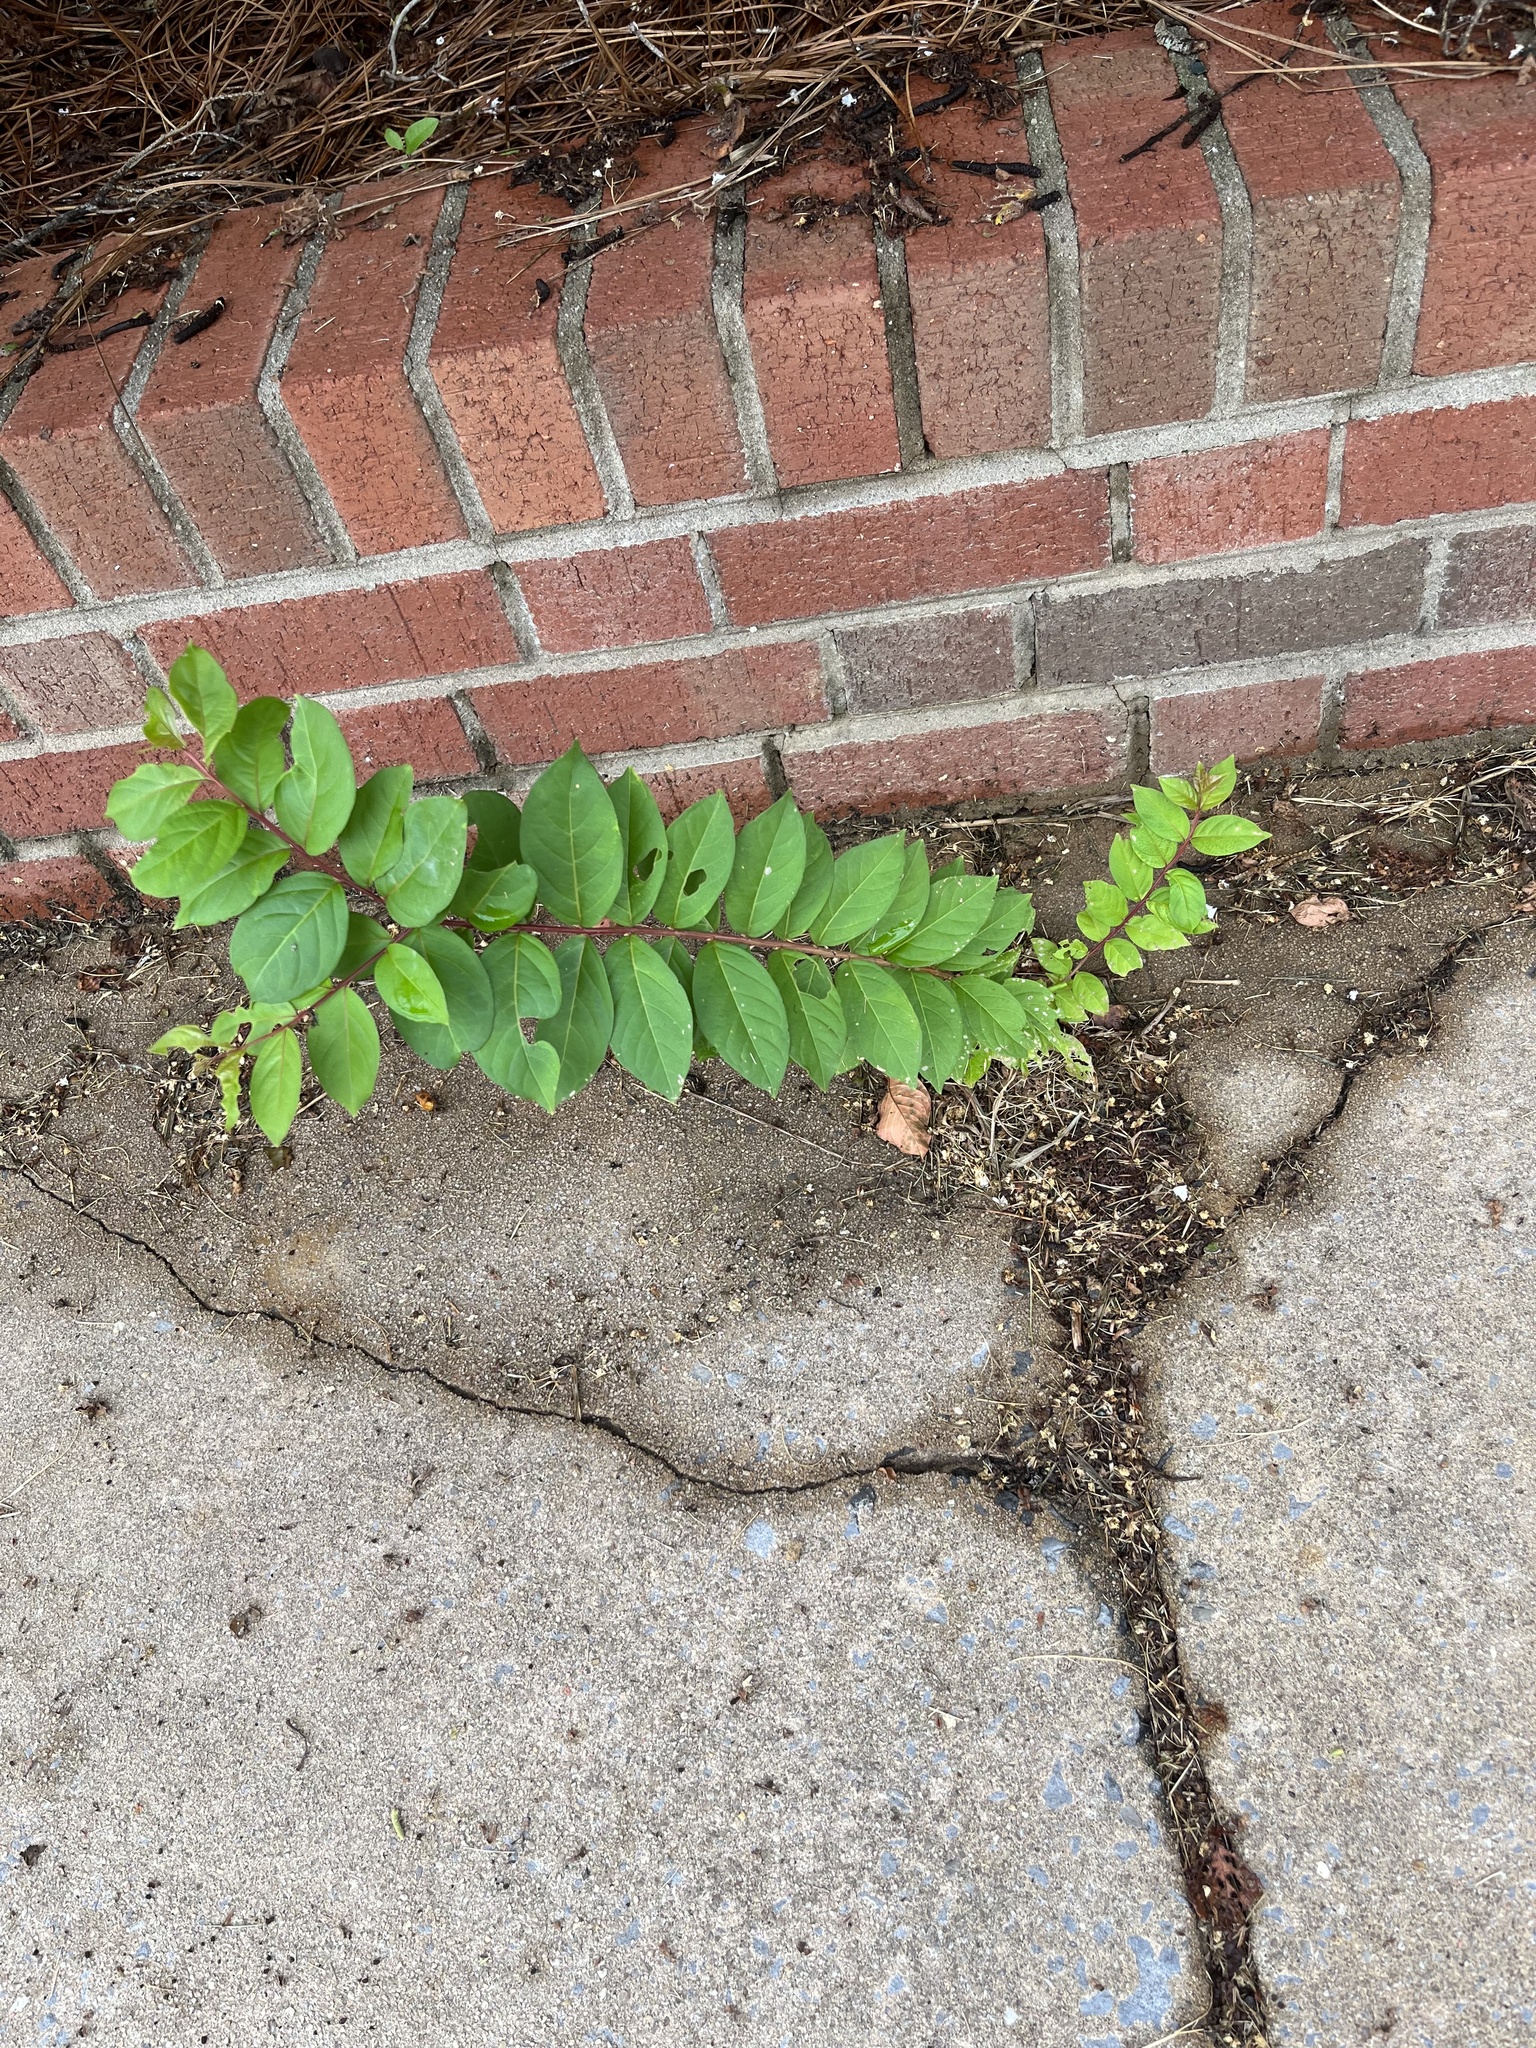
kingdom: Plantae
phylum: Tracheophyta
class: Magnoliopsida
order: Myrtales
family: Lythraceae
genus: Lagerstroemia
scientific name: Lagerstroemia indica
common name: Crape-myrtle
